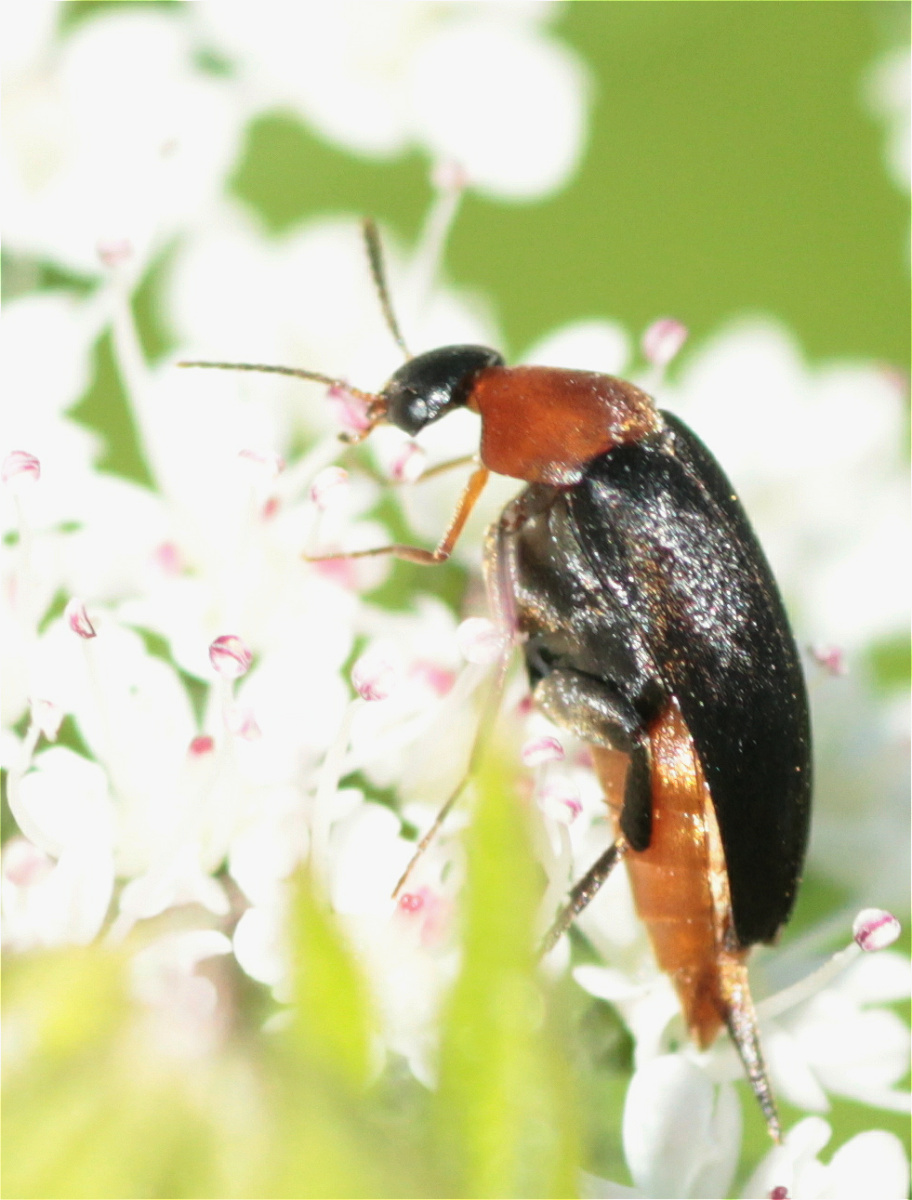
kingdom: Animalia
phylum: Arthropoda
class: Insecta
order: Coleoptera
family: Mordellidae
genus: Mordellochroa
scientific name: Mordellochroa abdominalis
